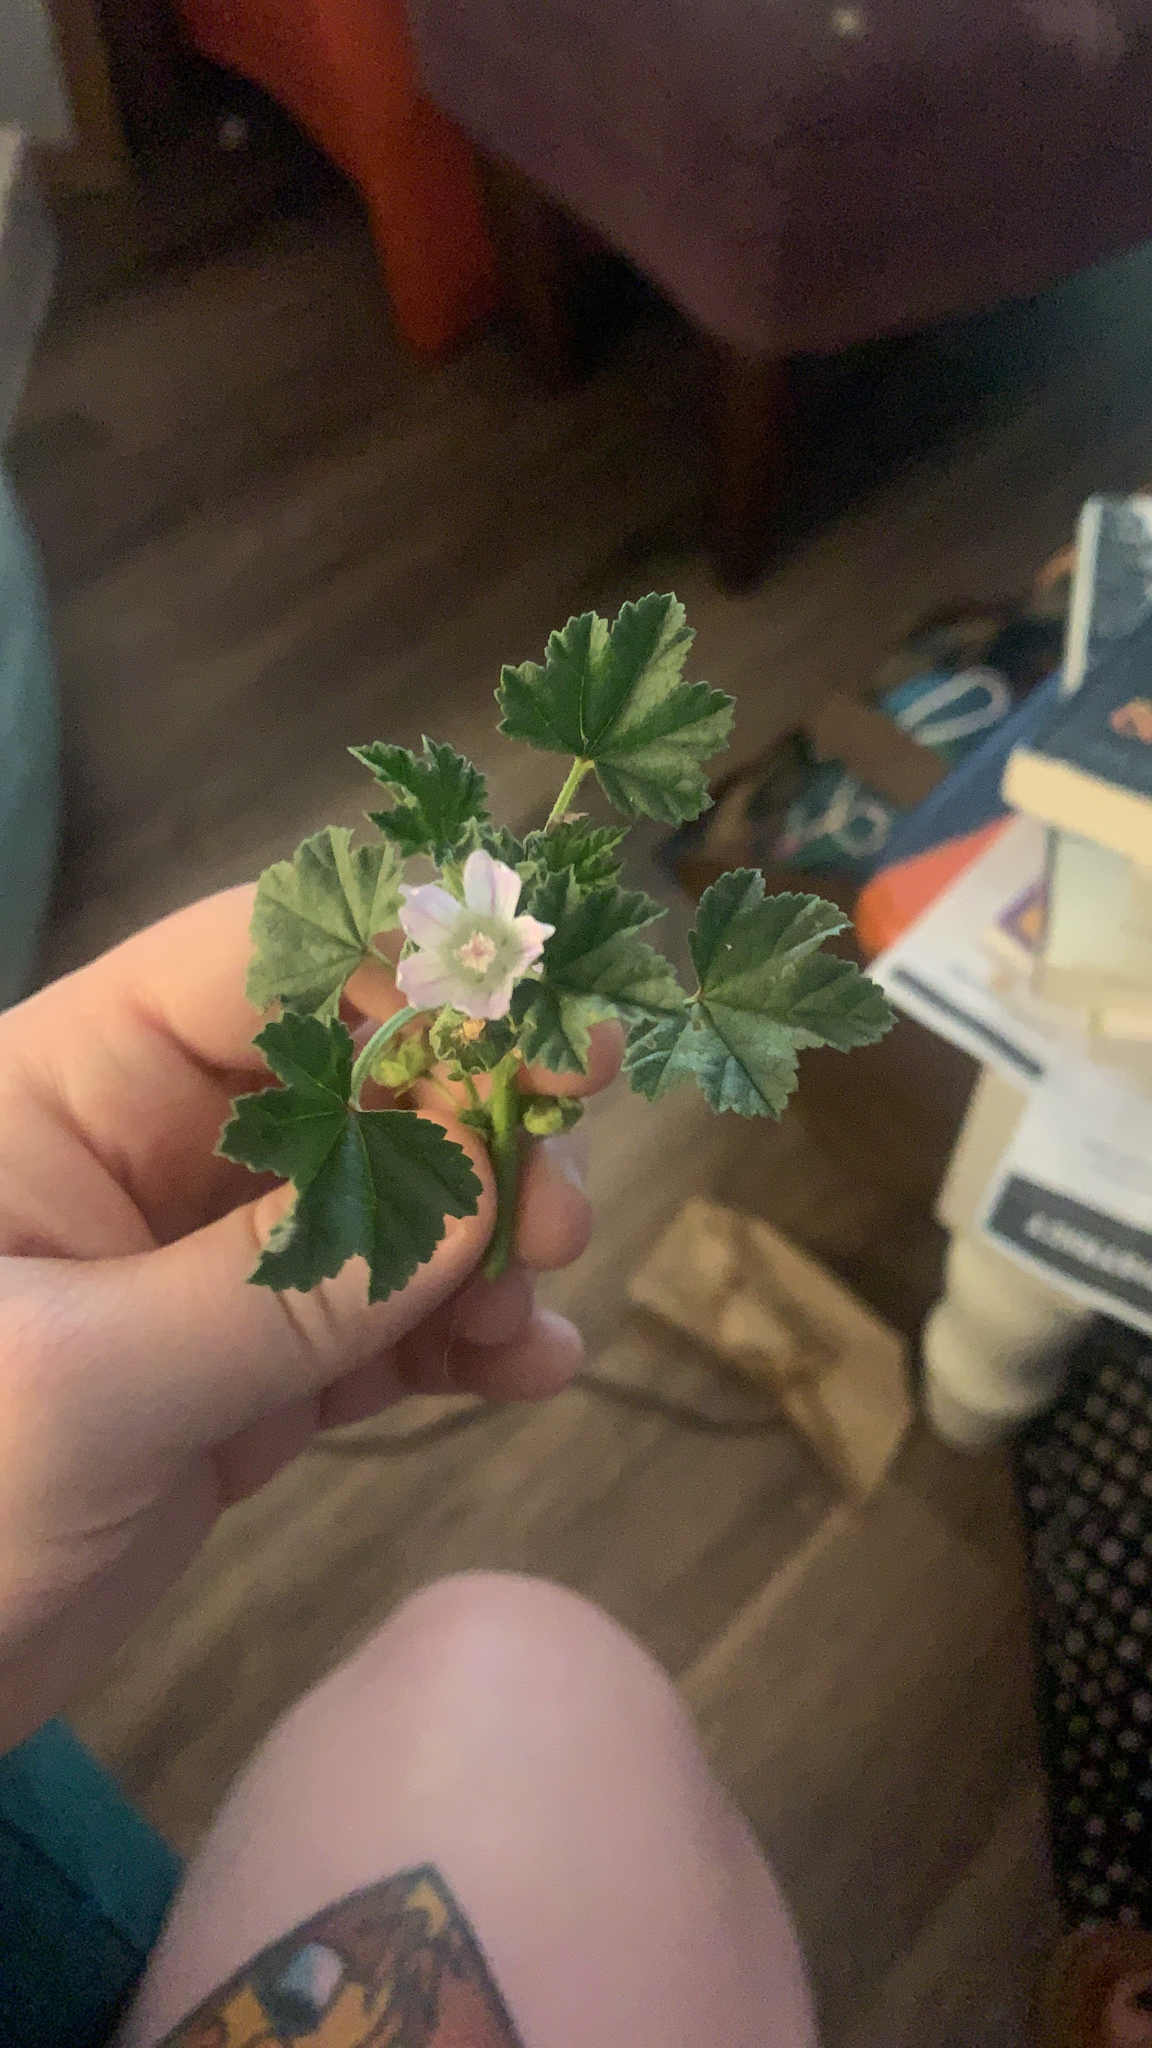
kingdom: Plantae
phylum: Tracheophyta
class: Magnoliopsida
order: Malvales
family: Malvaceae
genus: Malva
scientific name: Malva neglecta
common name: Common mallow
